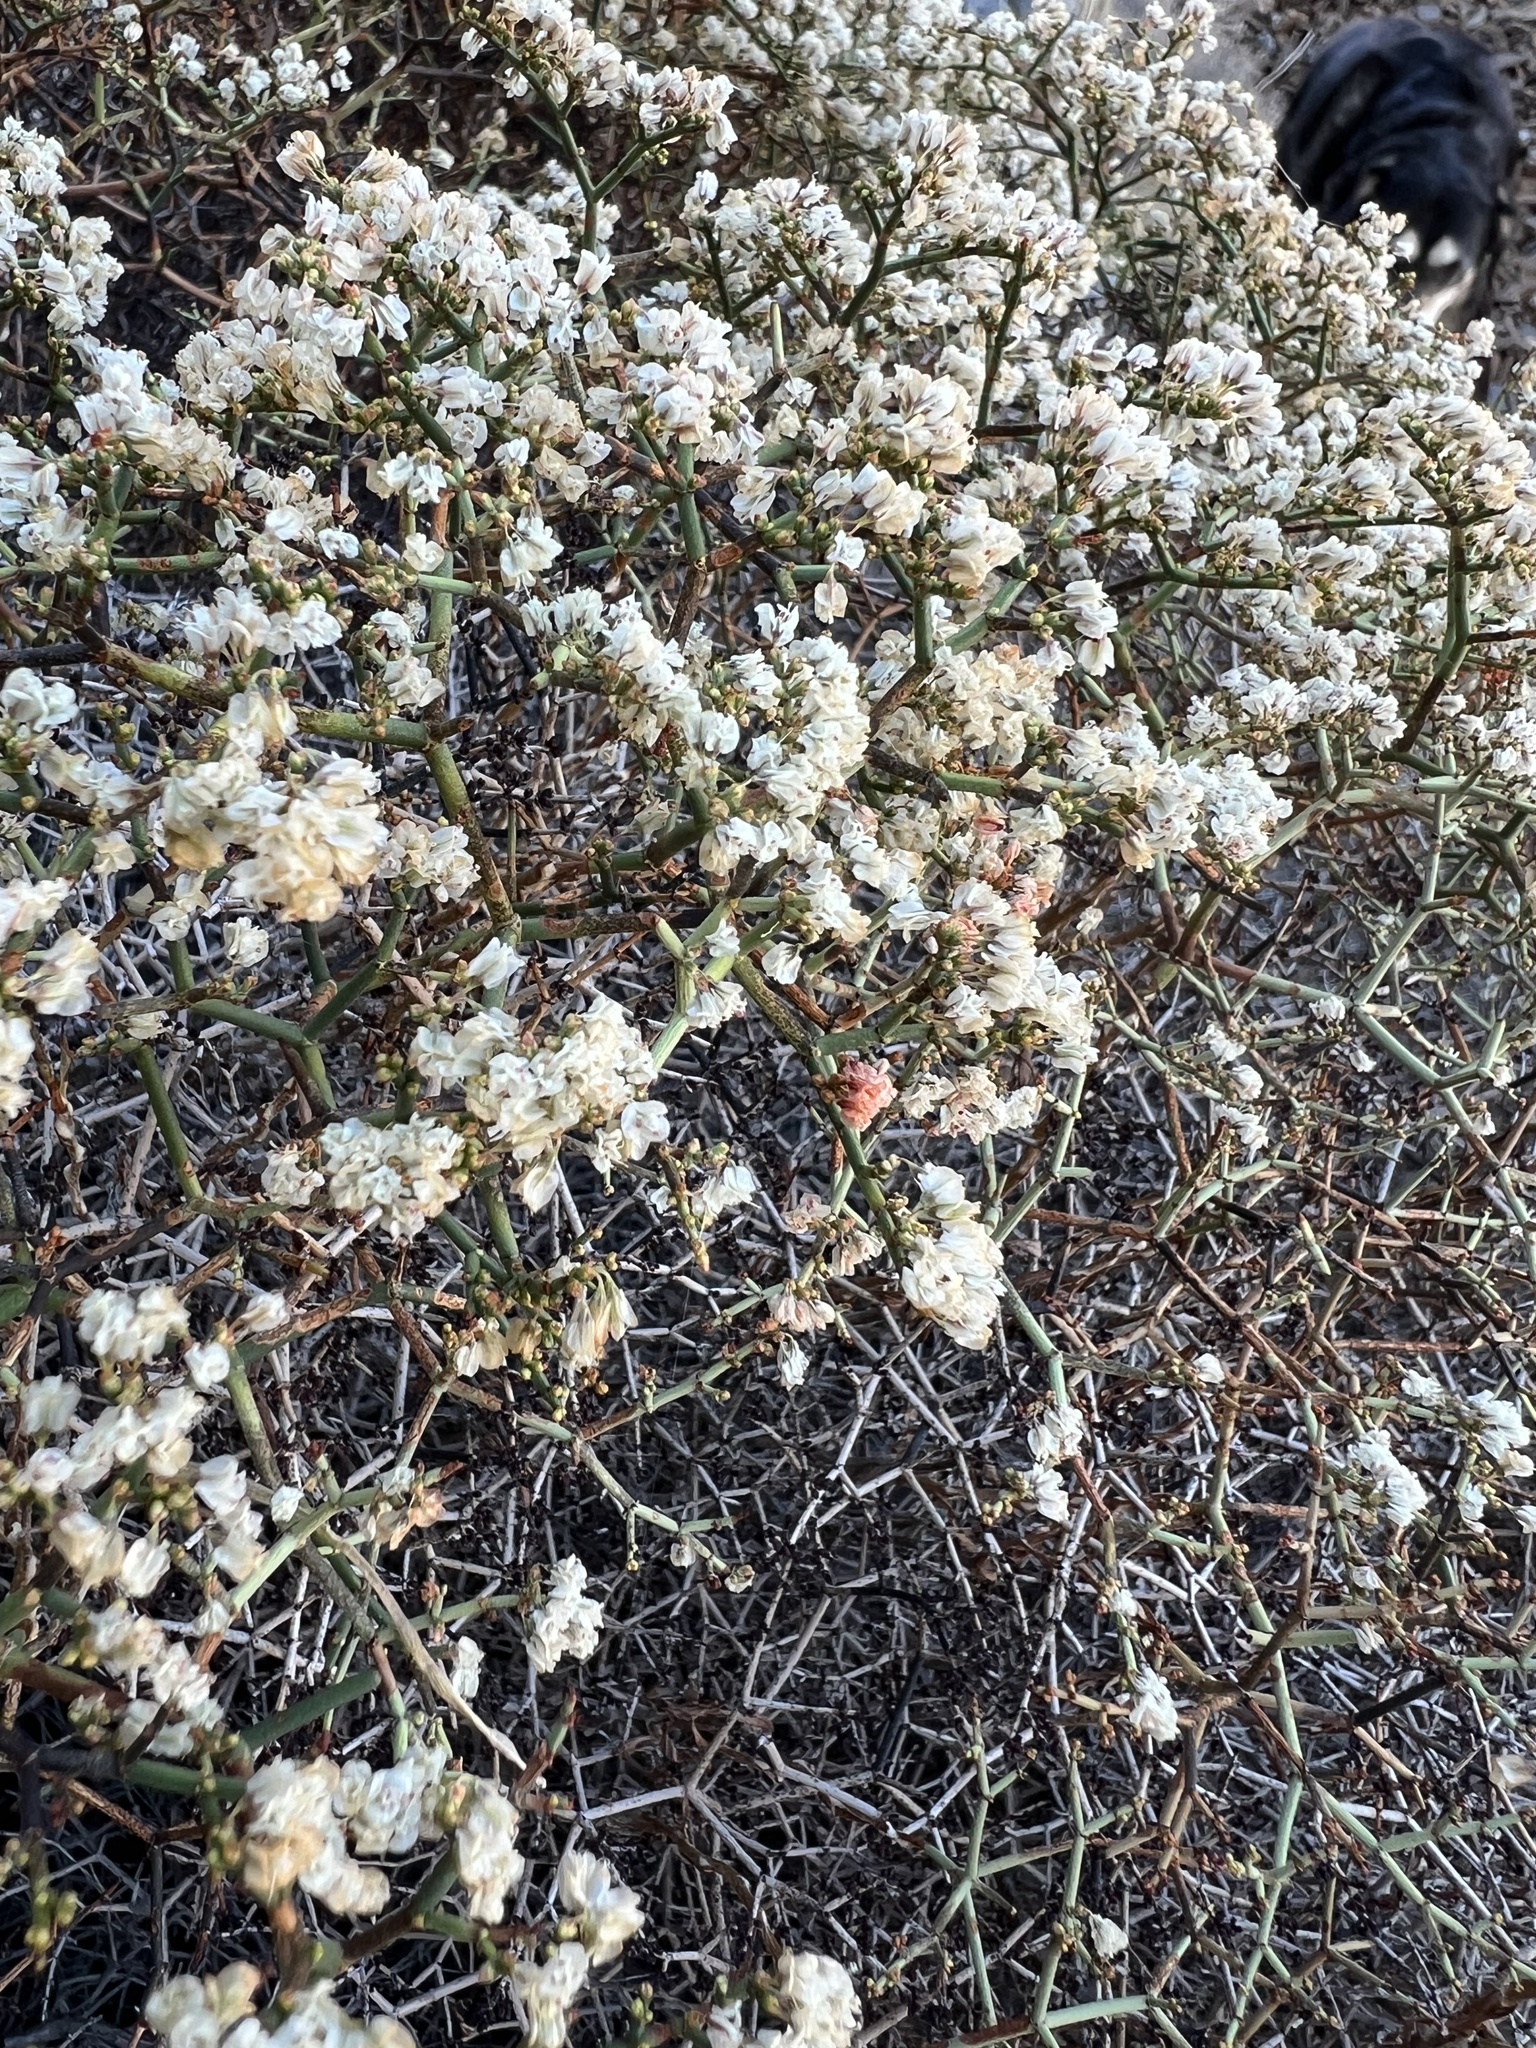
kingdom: Plantae
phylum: Tracheophyta
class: Magnoliopsida
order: Caryophyllales
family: Polygonaceae
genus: Eriogonum
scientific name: Eriogonum heermannii
